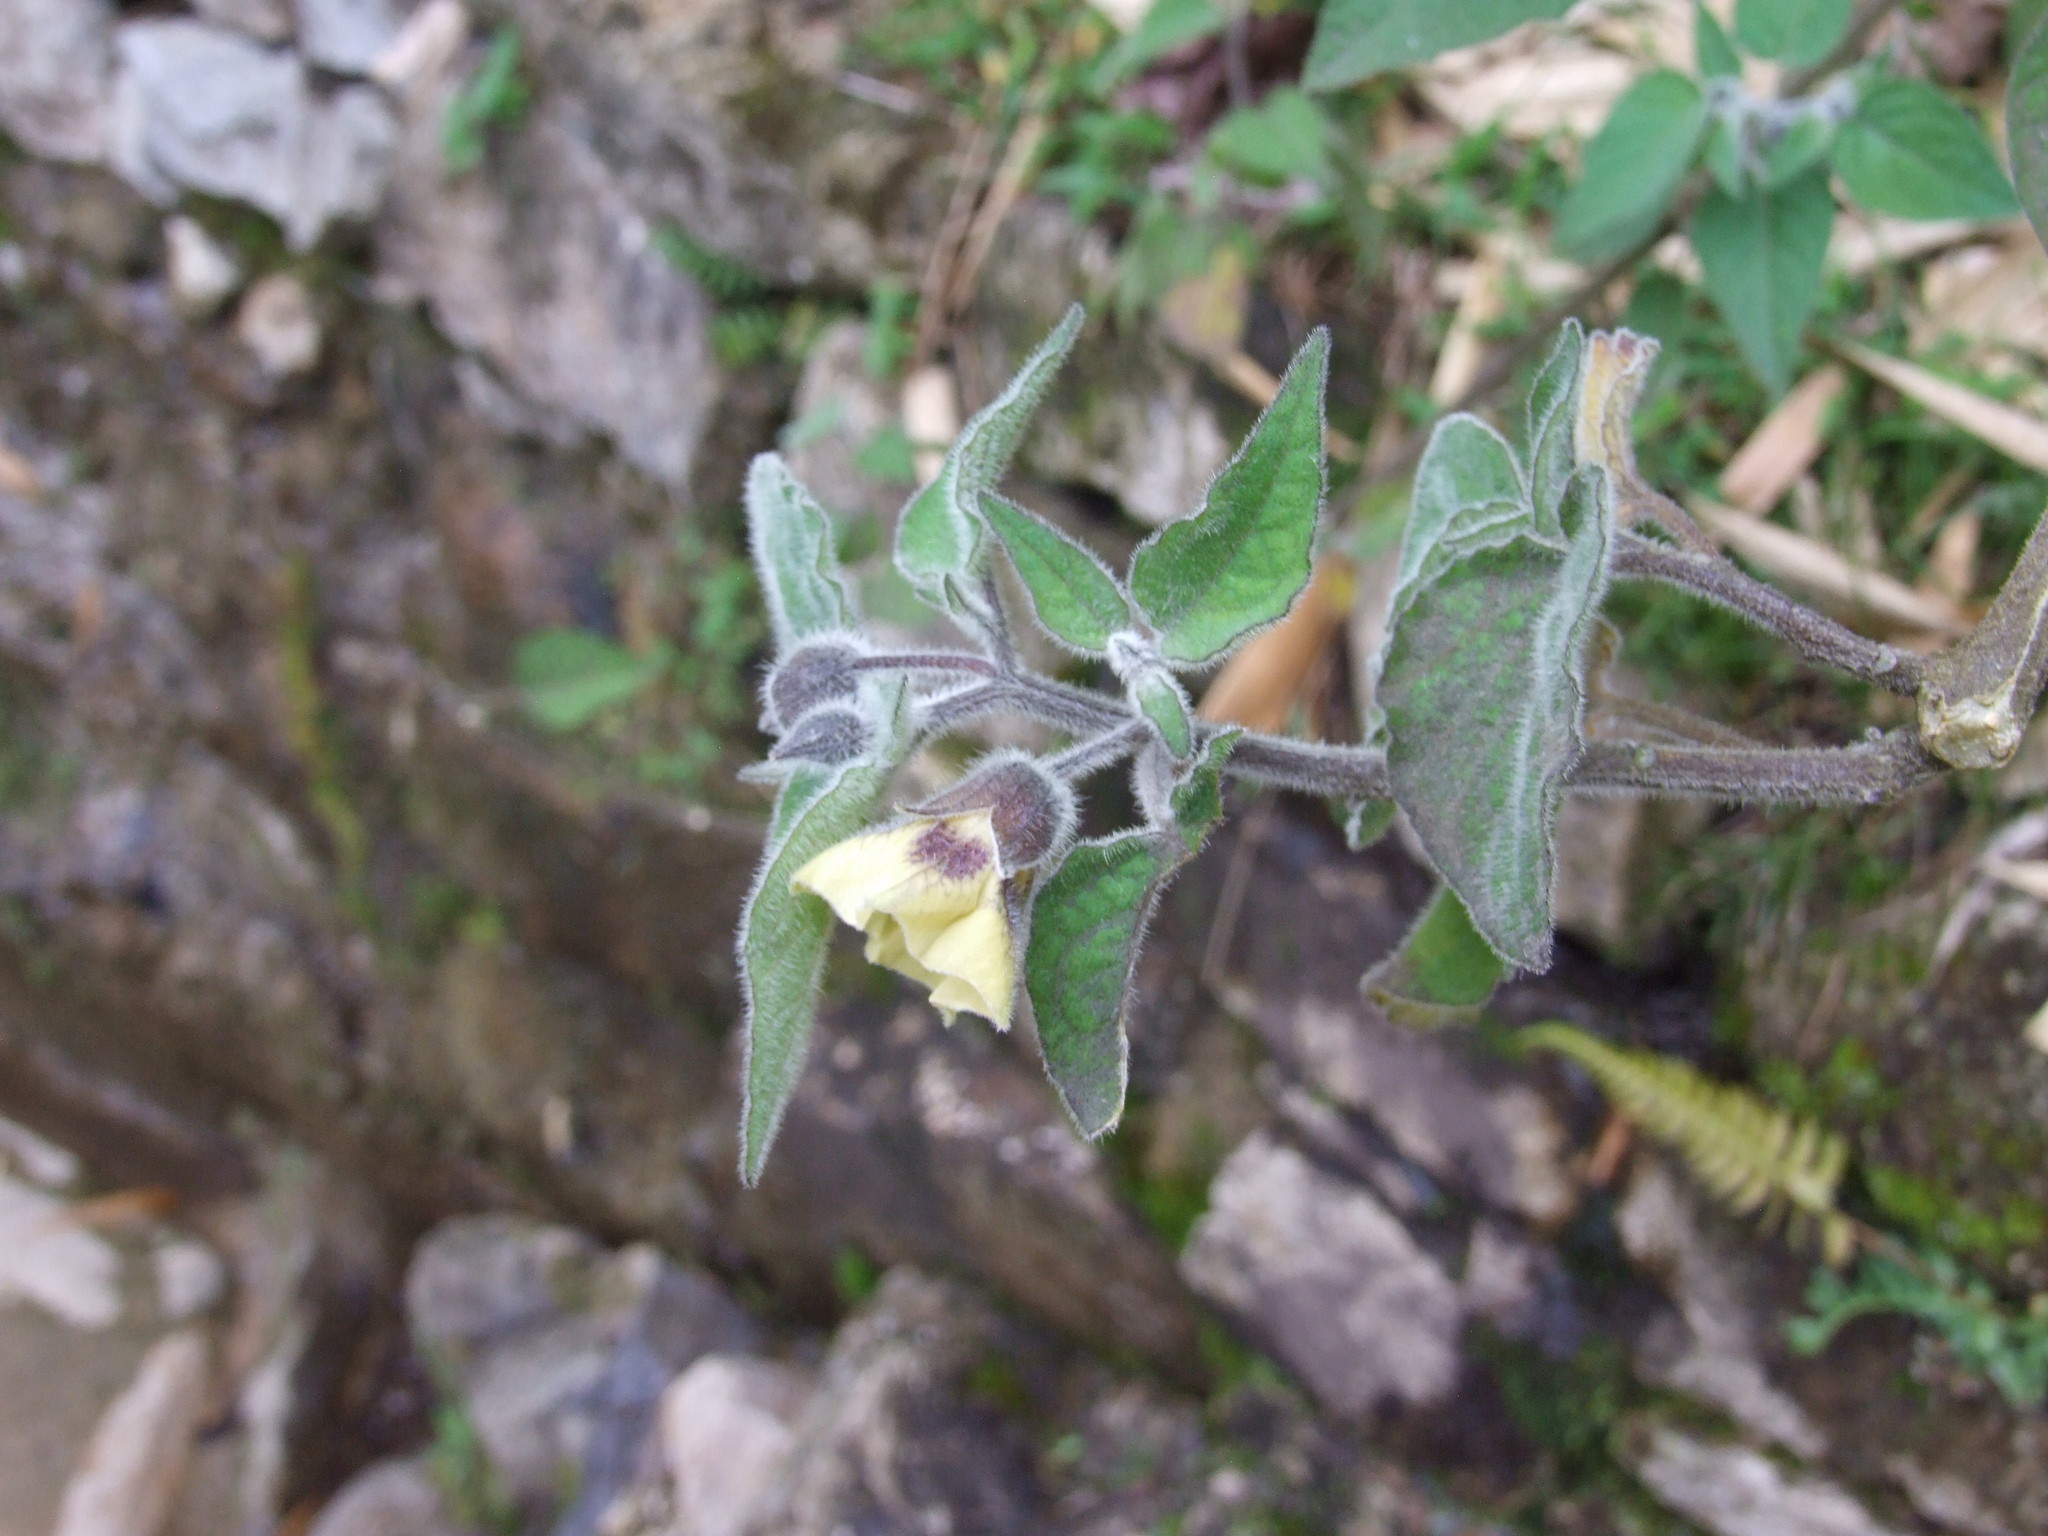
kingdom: Plantae
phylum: Tracheophyta
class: Magnoliopsida
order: Solanales
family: Solanaceae
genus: Physalis
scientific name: Physalis peruviana
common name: Cape-gooseberry
